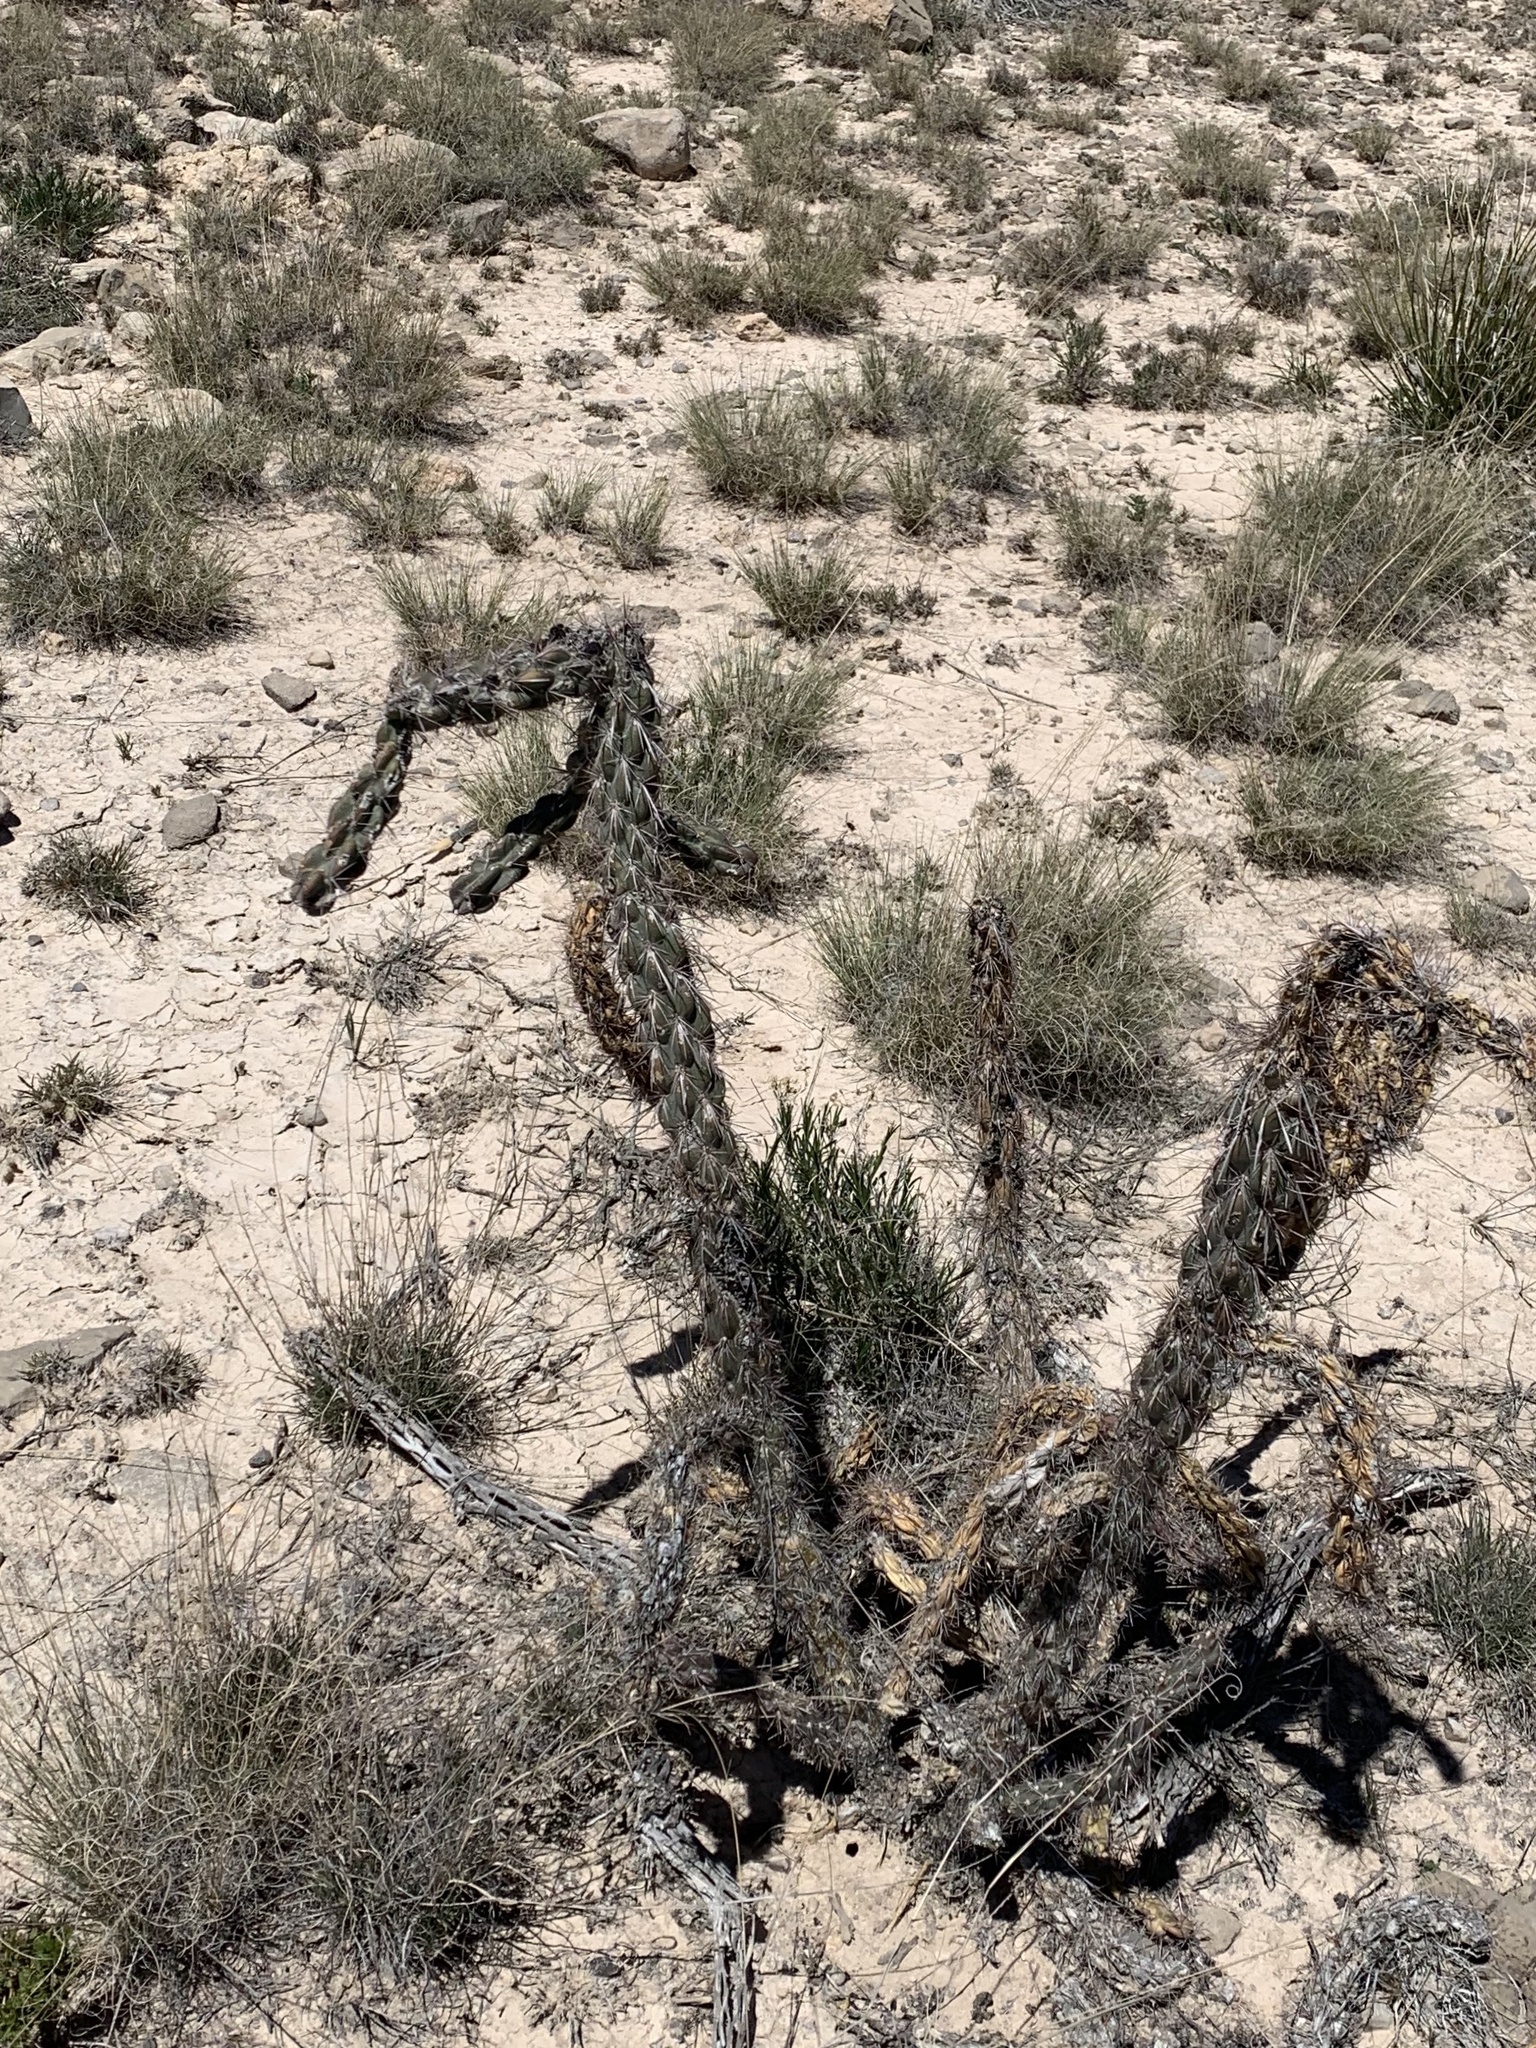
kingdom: Plantae
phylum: Tracheophyta
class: Magnoliopsida
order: Caryophyllales
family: Cactaceae
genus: Cylindropuntia
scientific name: Cylindropuntia imbricata
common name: Candelabrum cactus
